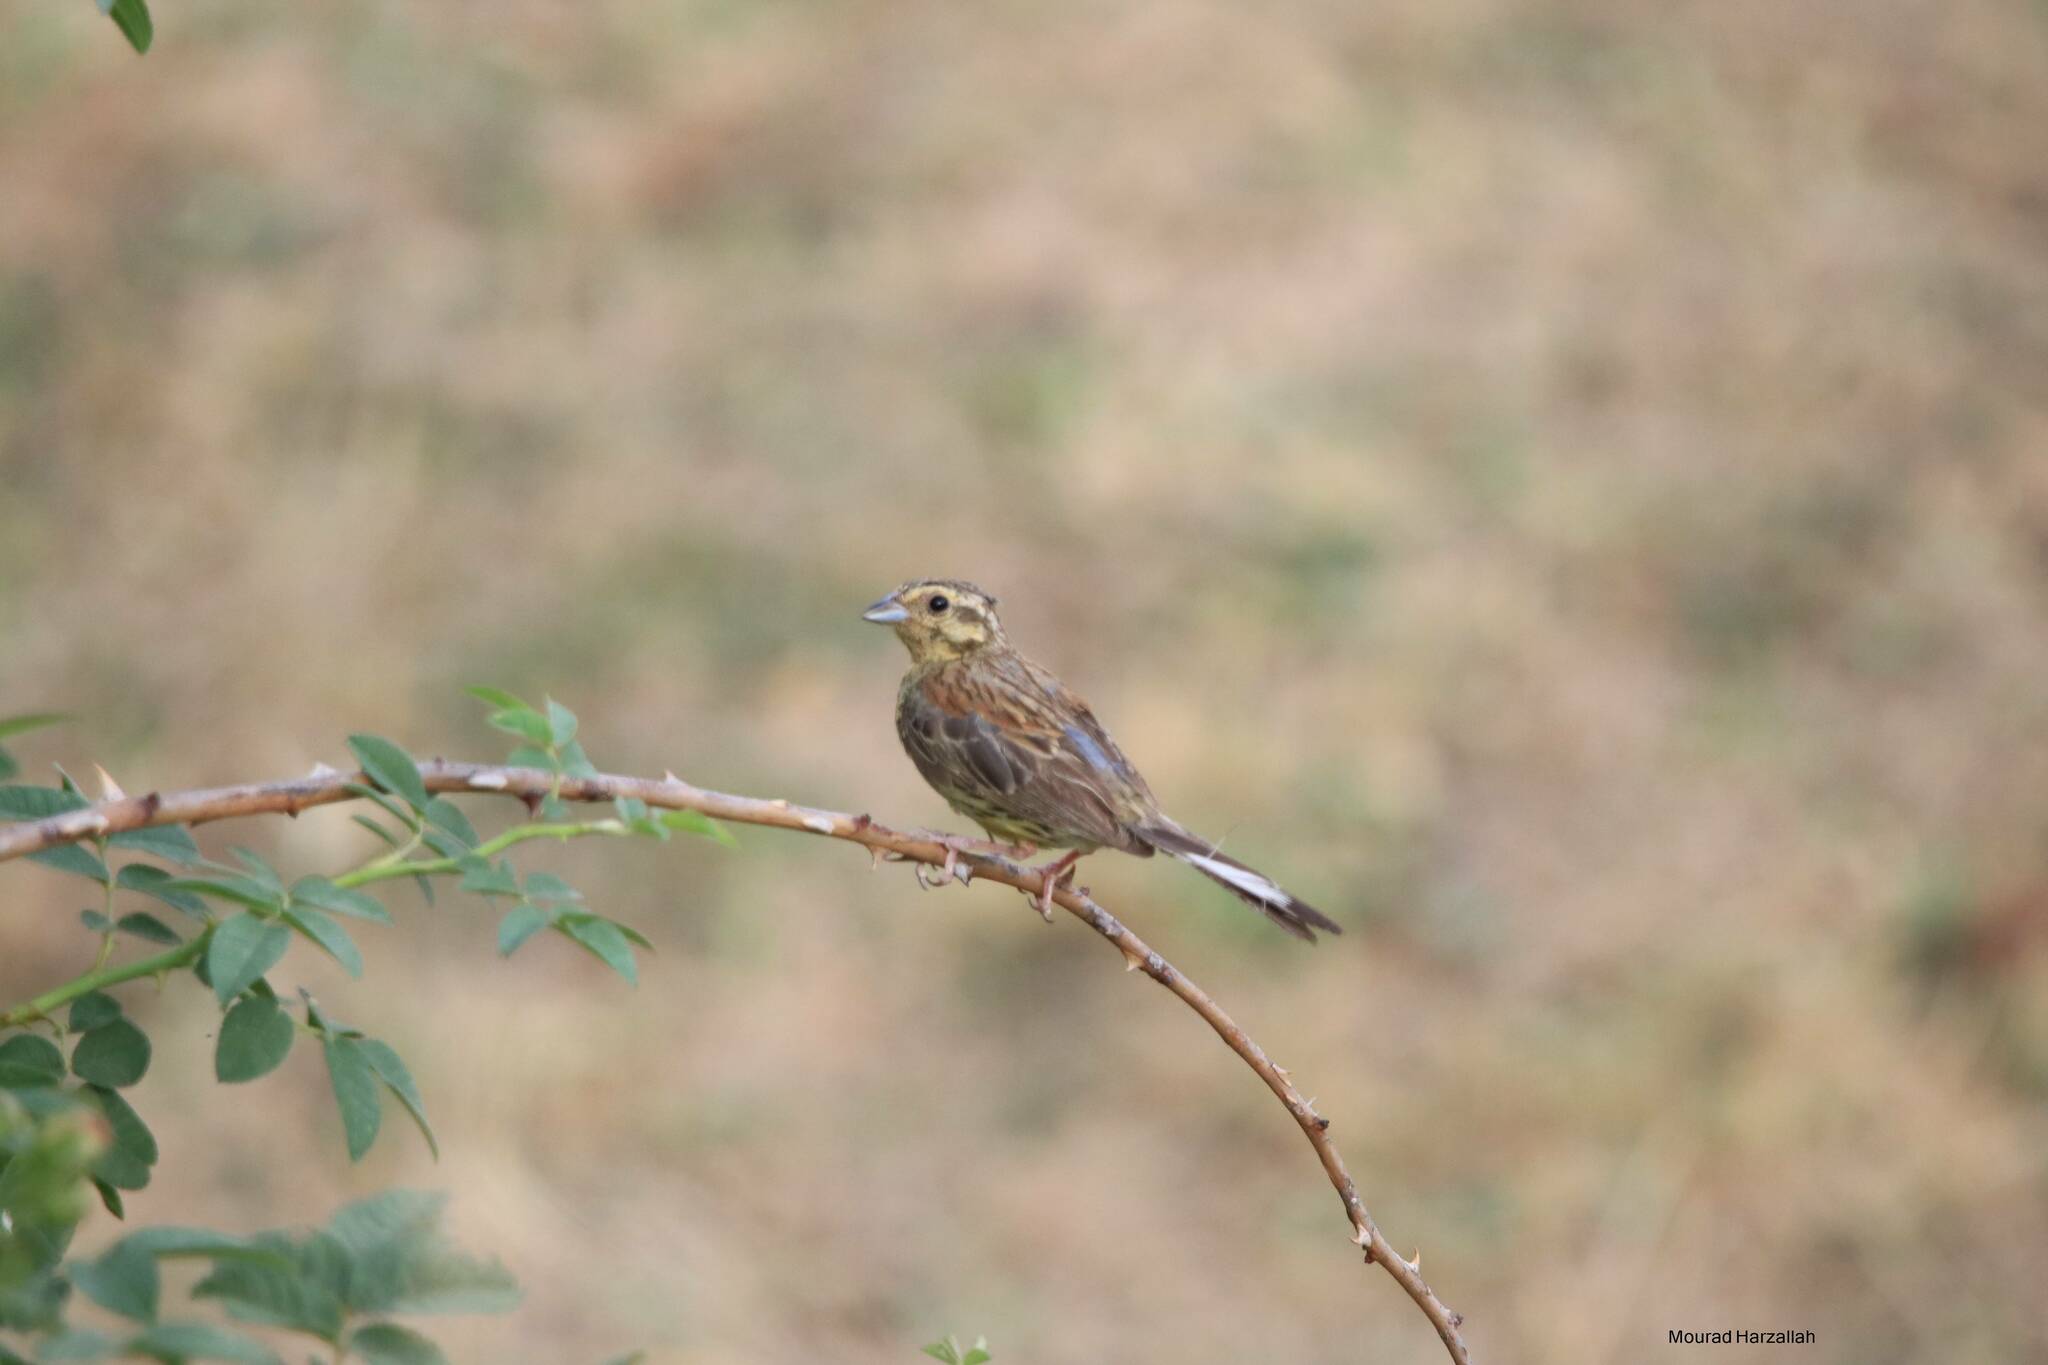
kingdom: Animalia
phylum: Chordata
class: Aves
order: Passeriformes
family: Emberizidae
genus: Emberiza
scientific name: Emberiza cirlus
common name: Cirl bunting
